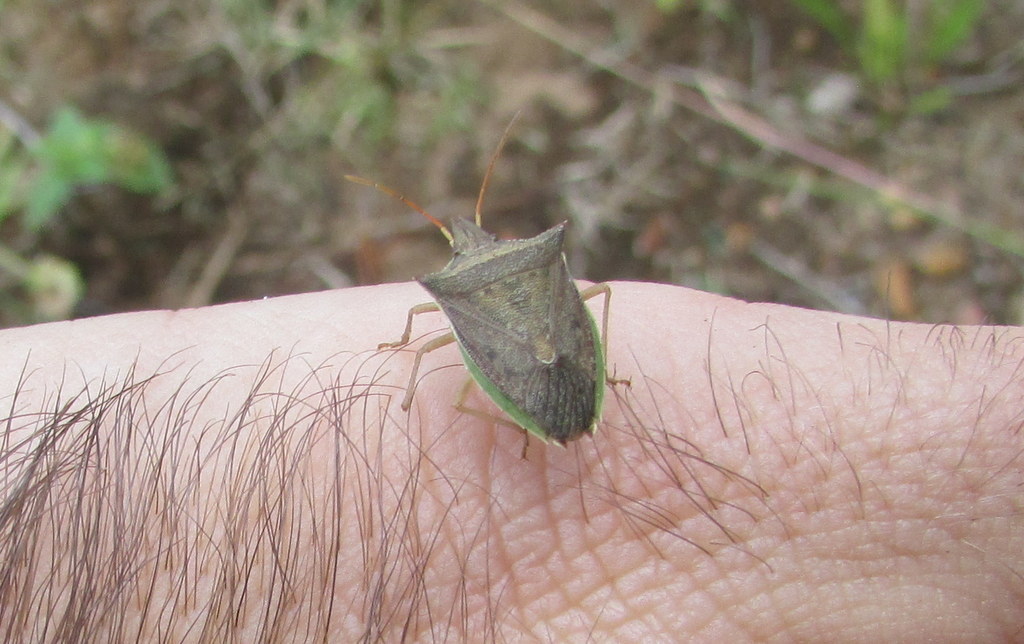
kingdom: Animalia
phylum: Arthropoda
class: Insecta
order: Hemiptera
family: Pentatomidae
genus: Diceraeus
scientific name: Diceraeus furcatus
